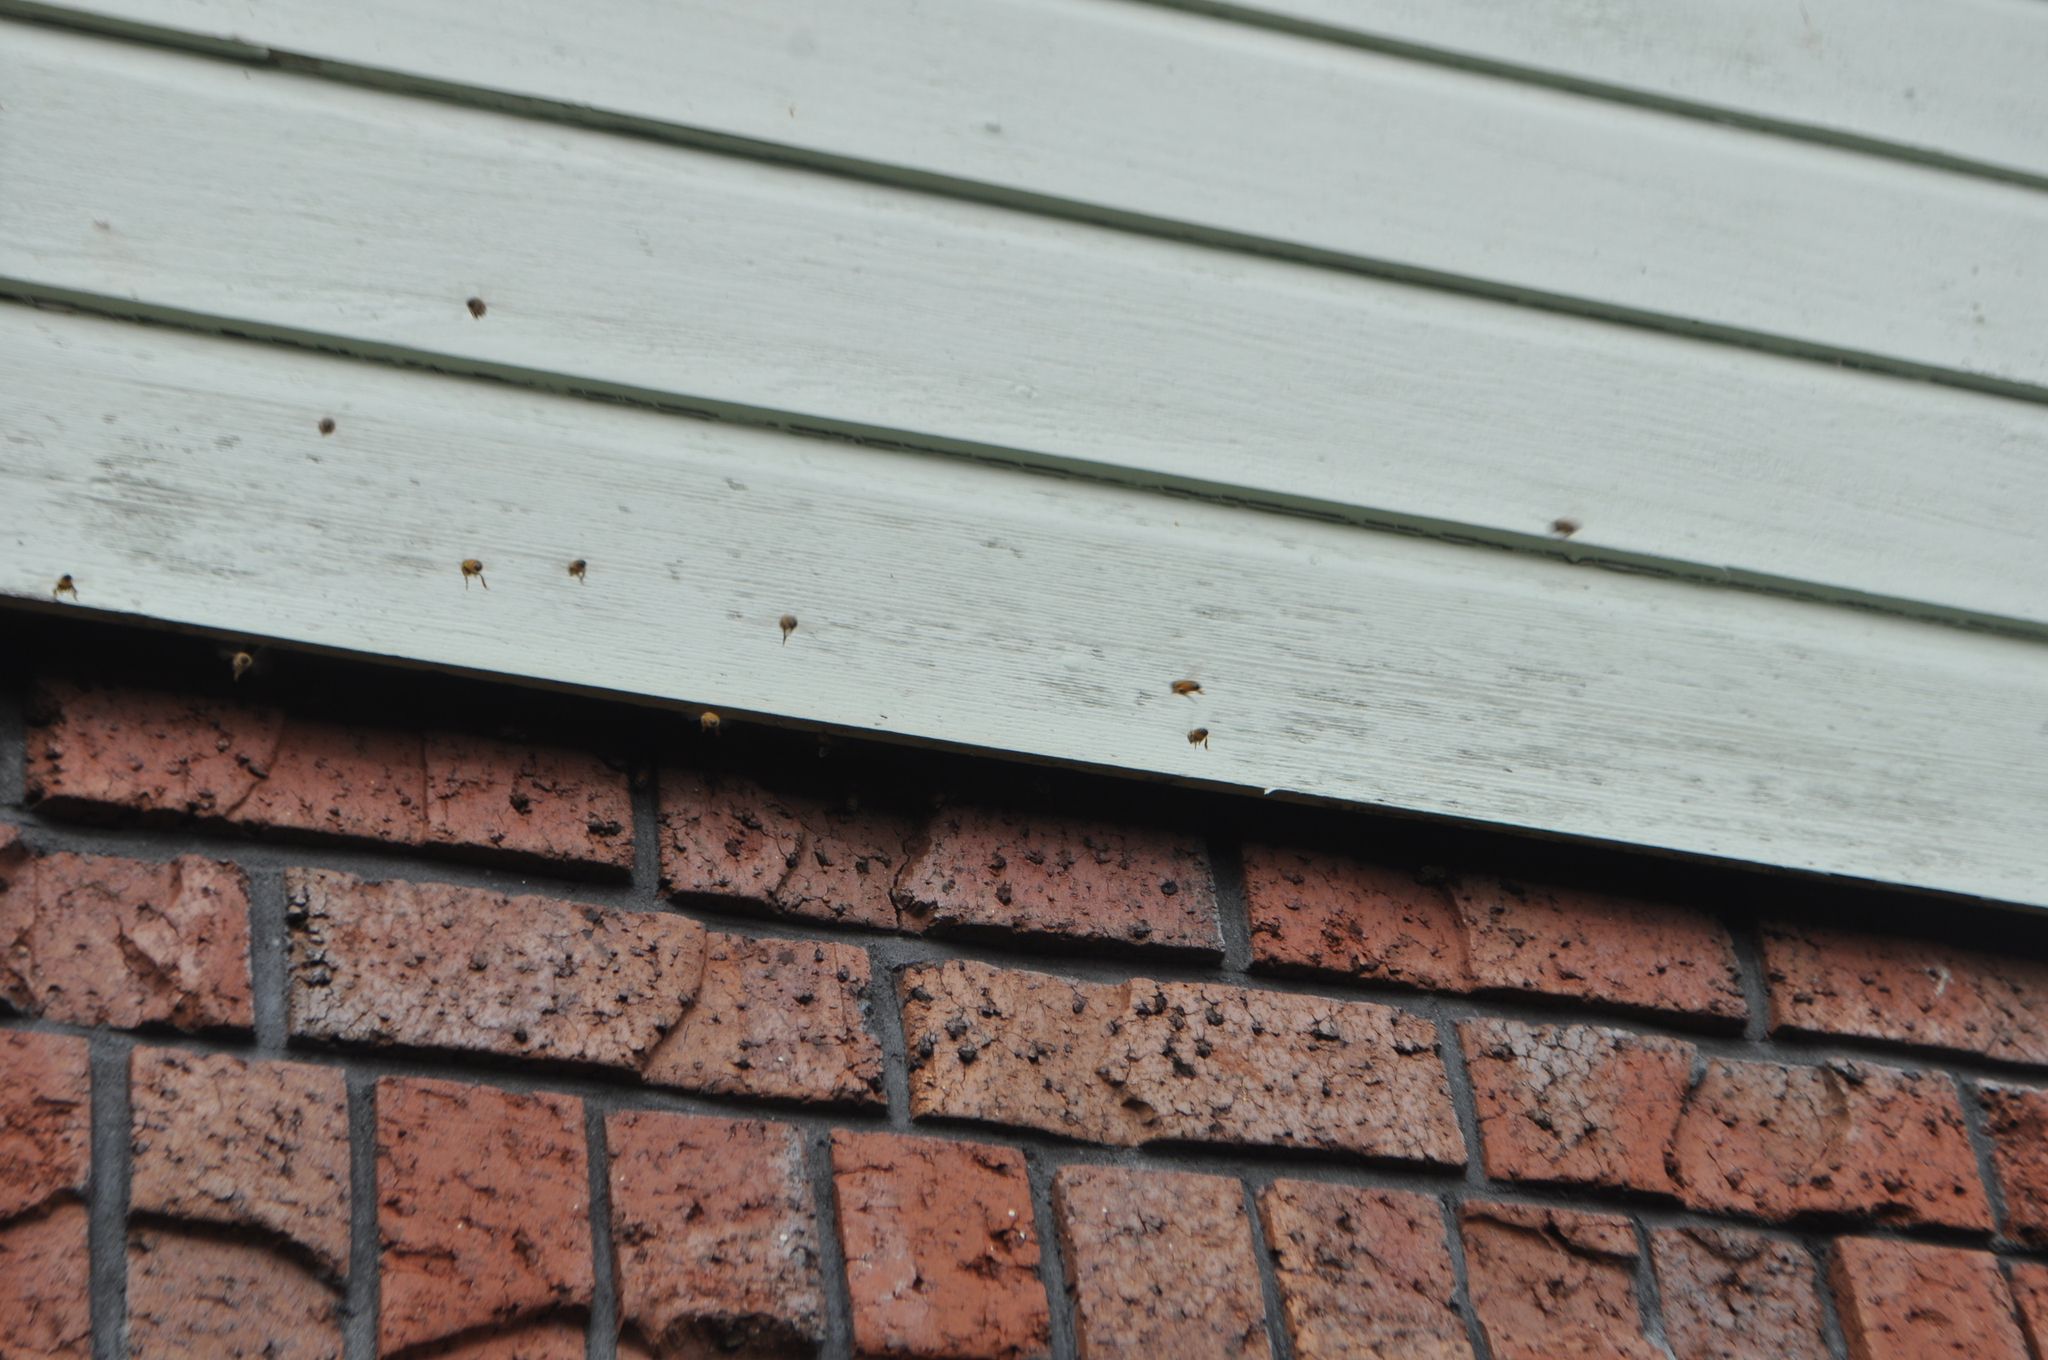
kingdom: Animalia
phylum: Arthropoda
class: Insecta
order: Hymenoptera
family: Apidae
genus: Apis
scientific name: Apis mellifera
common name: Honey bee
